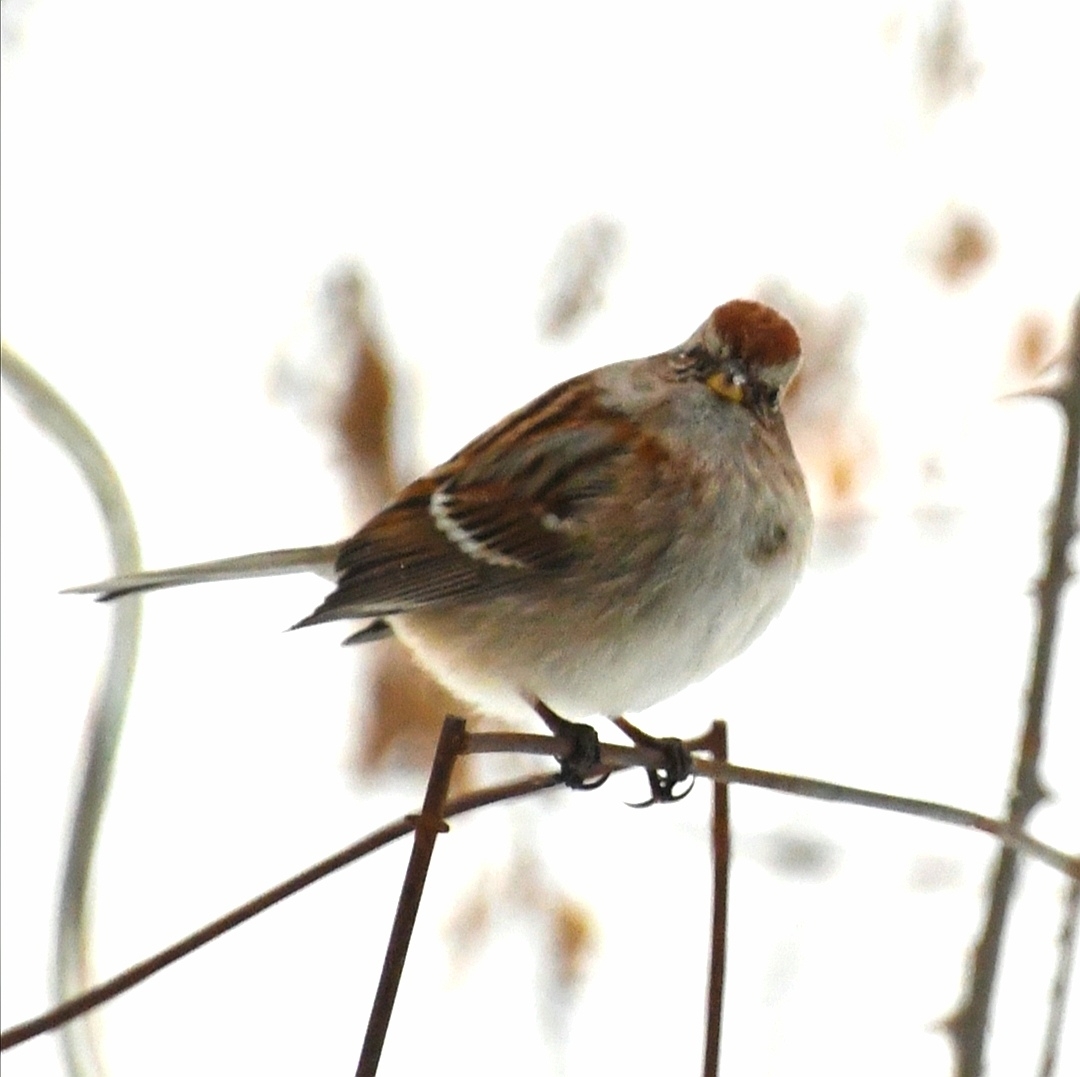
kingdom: Animalia
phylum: Chordata
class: Aves
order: Passeriformes
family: Passerellidae
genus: Spizelloides
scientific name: Spizelloides arborea
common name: American tree sparrow
